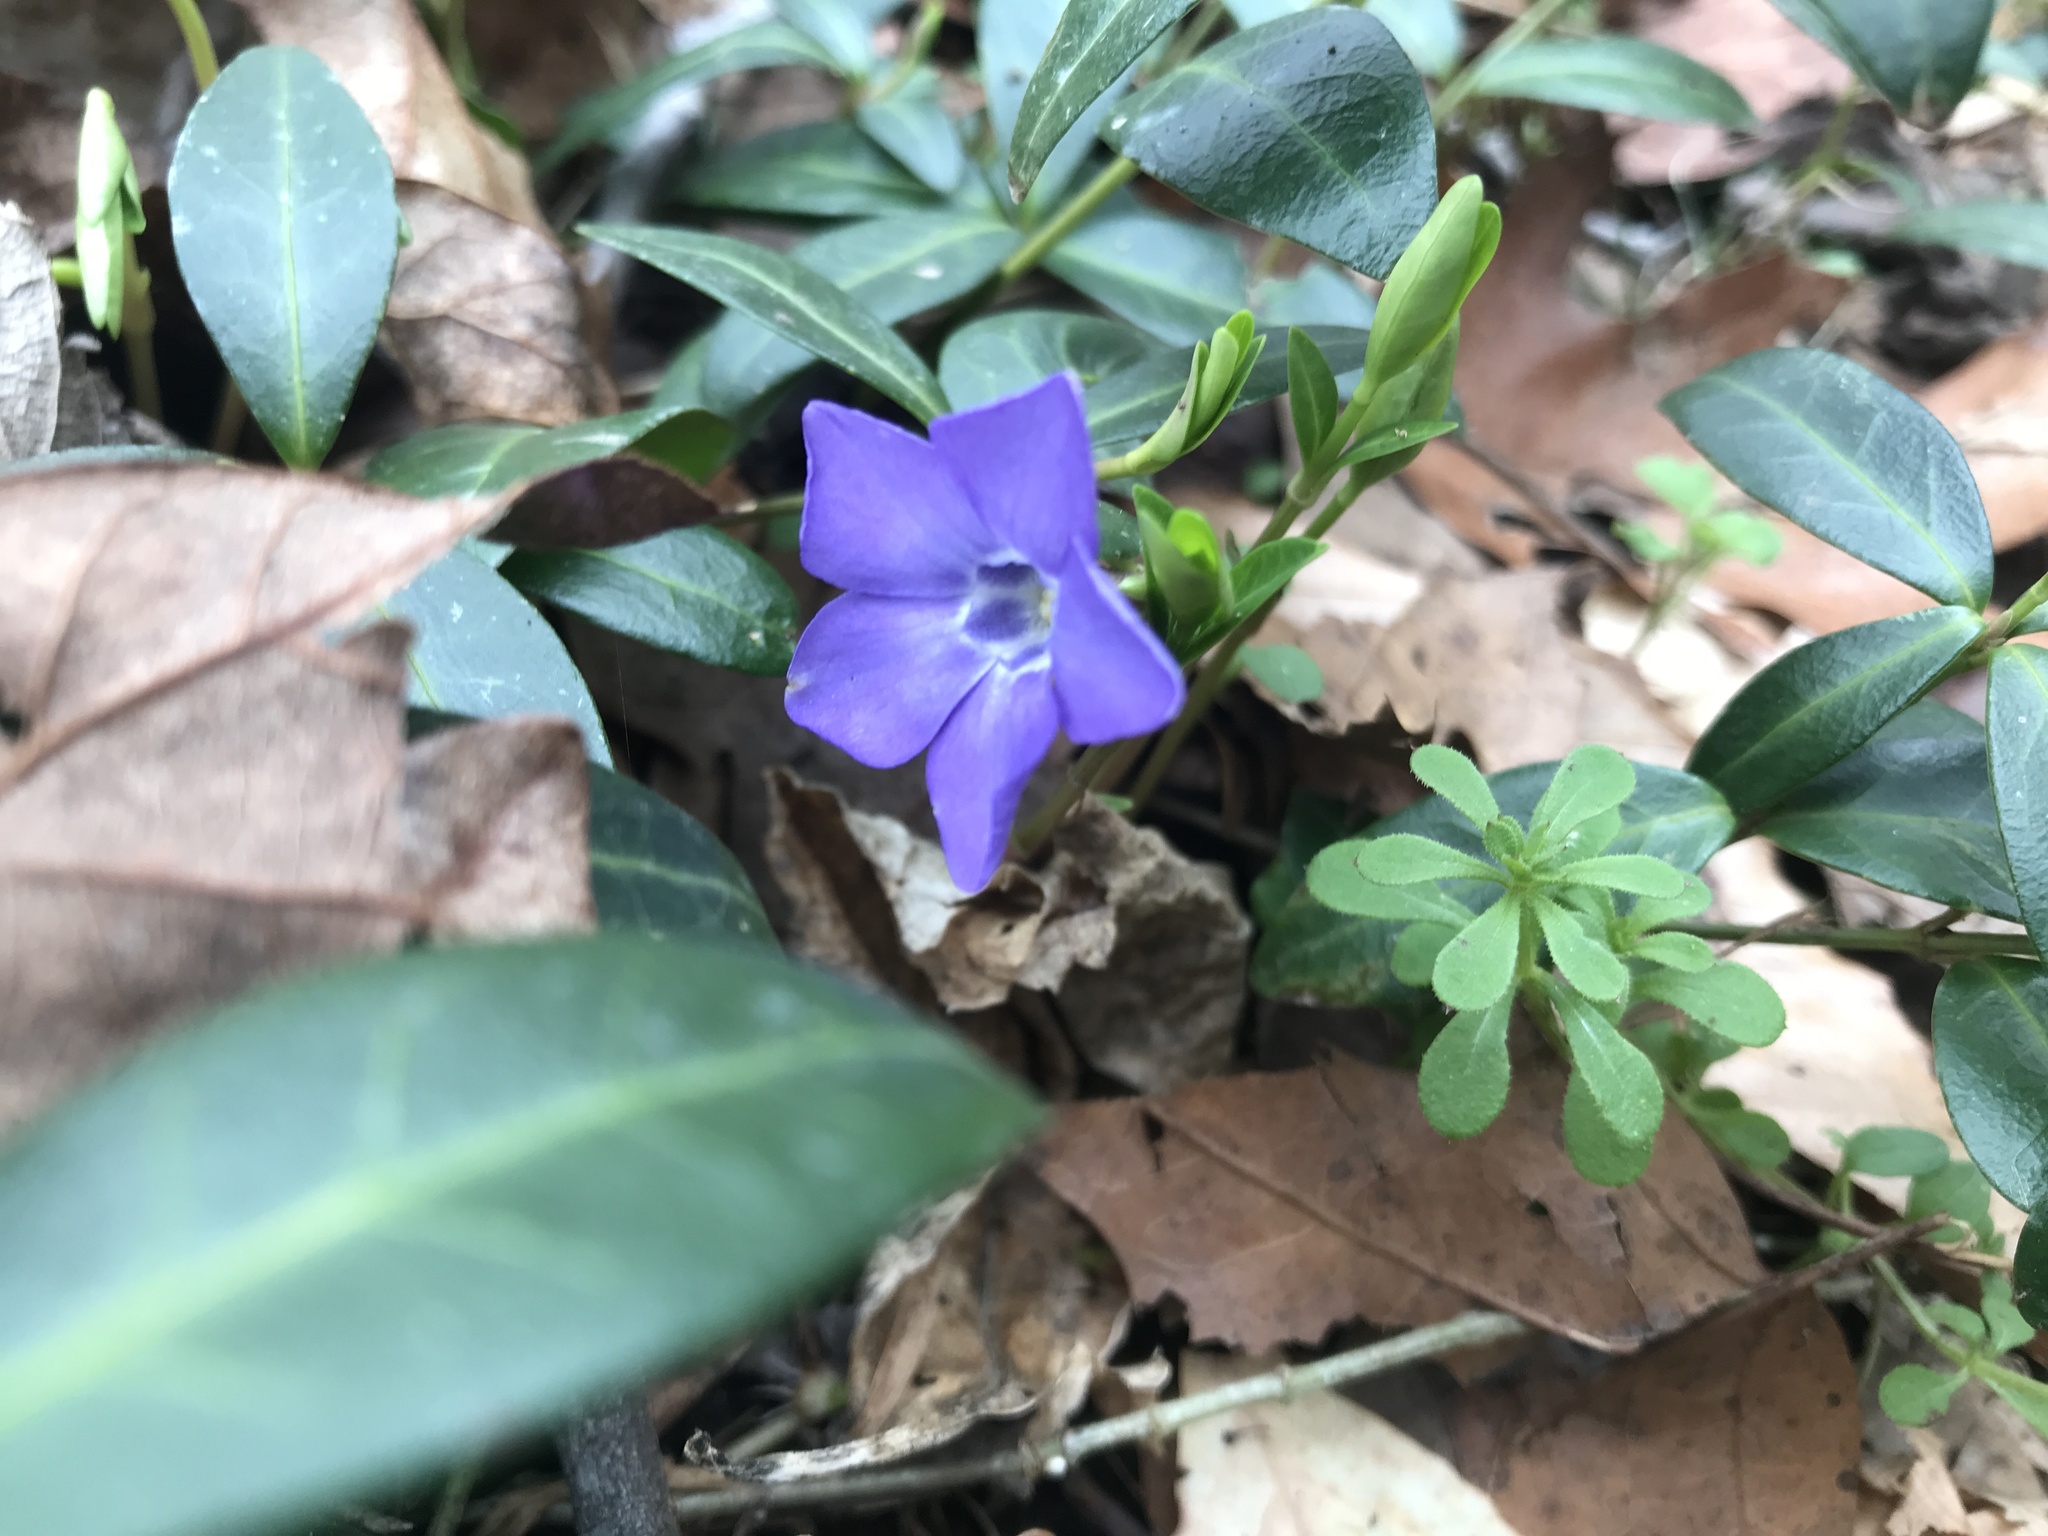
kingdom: Plantae
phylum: Tracheophyta
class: Magnoliopsida
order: Gentianales
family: Apocynaceae
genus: Vinca
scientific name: Vinca minor
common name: Lesser periwinkle
